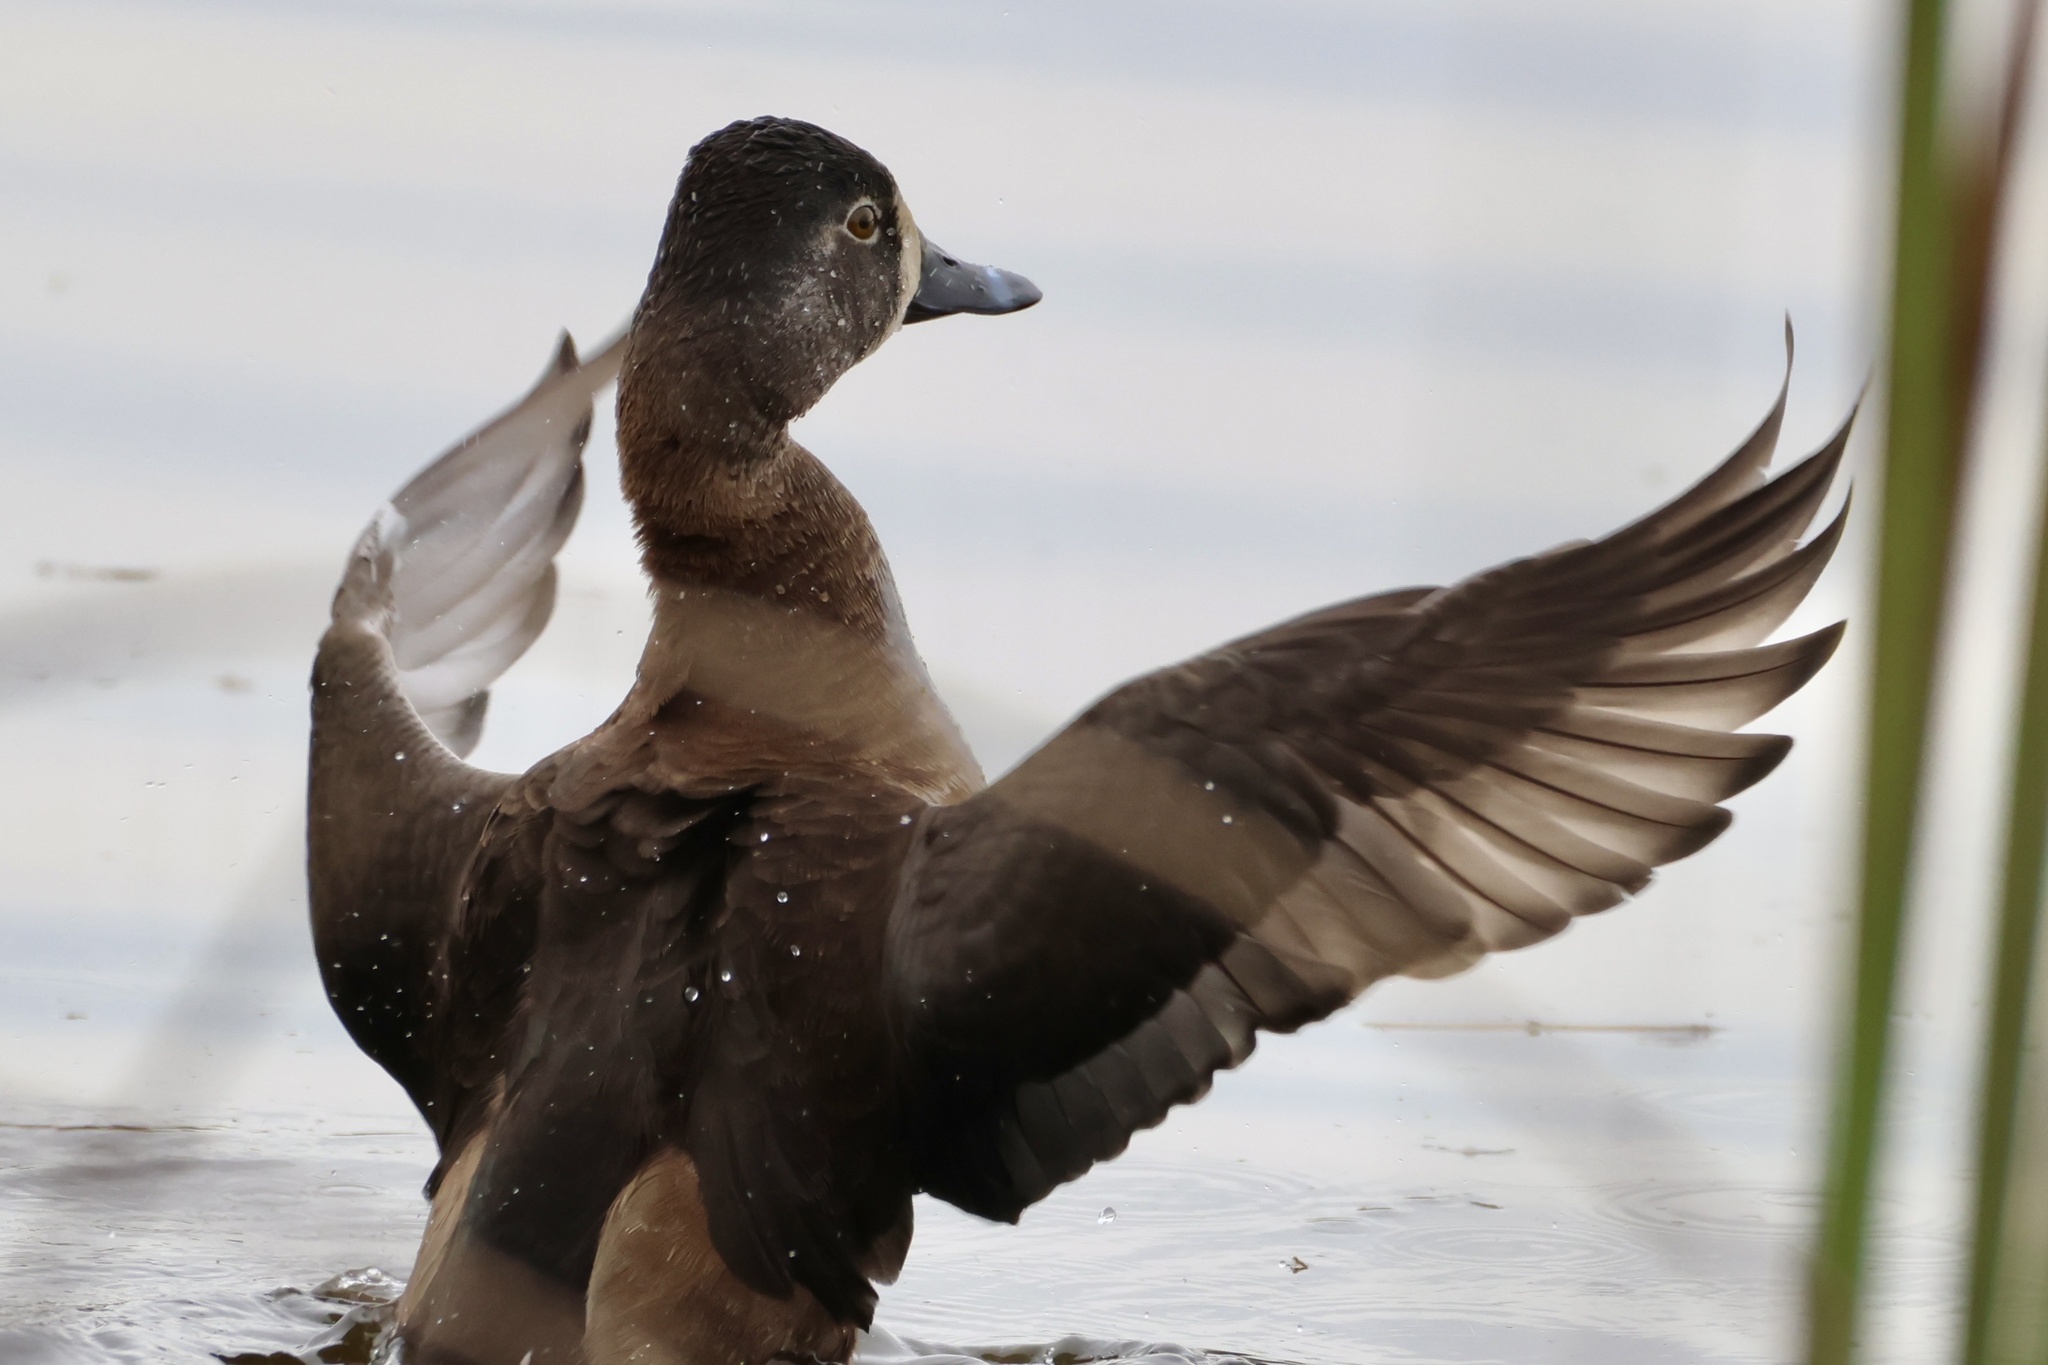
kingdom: Animalia
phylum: Chordata
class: Aves
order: Anseriformes
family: Anatidae
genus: Aythya
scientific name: Aythya collaris
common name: Ring-necked duck
